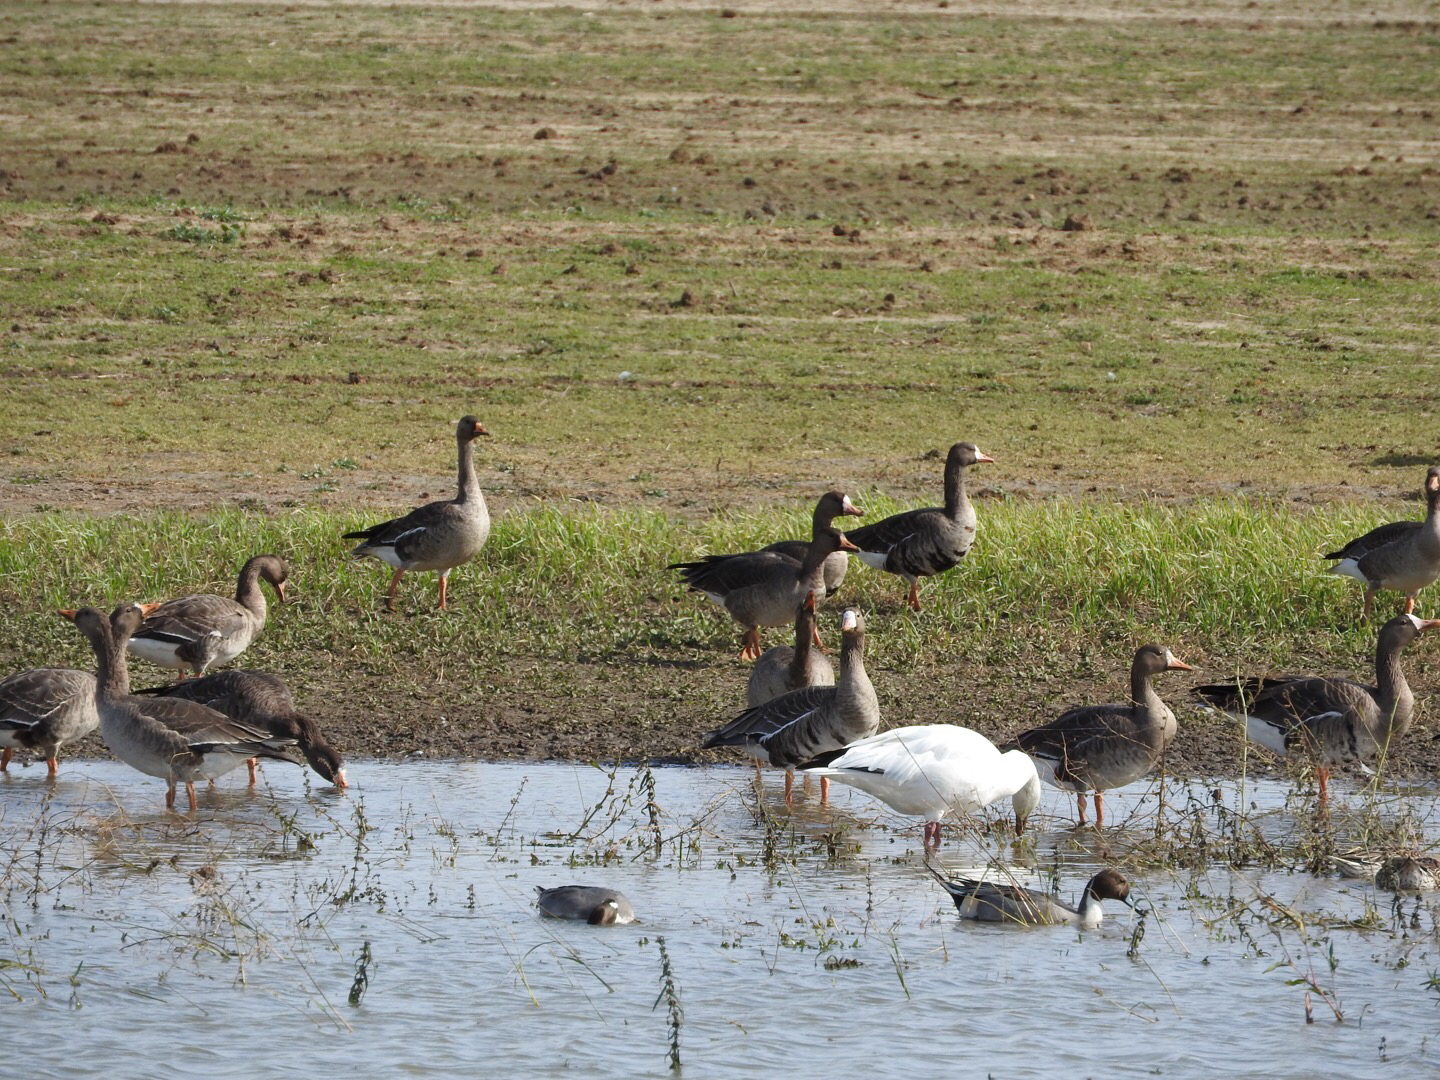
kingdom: Animalia
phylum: Chordata
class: Aves
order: Anseriformes
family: Anatidae
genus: Anser
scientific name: Anser albifrons
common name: Greater white-fronted goose
